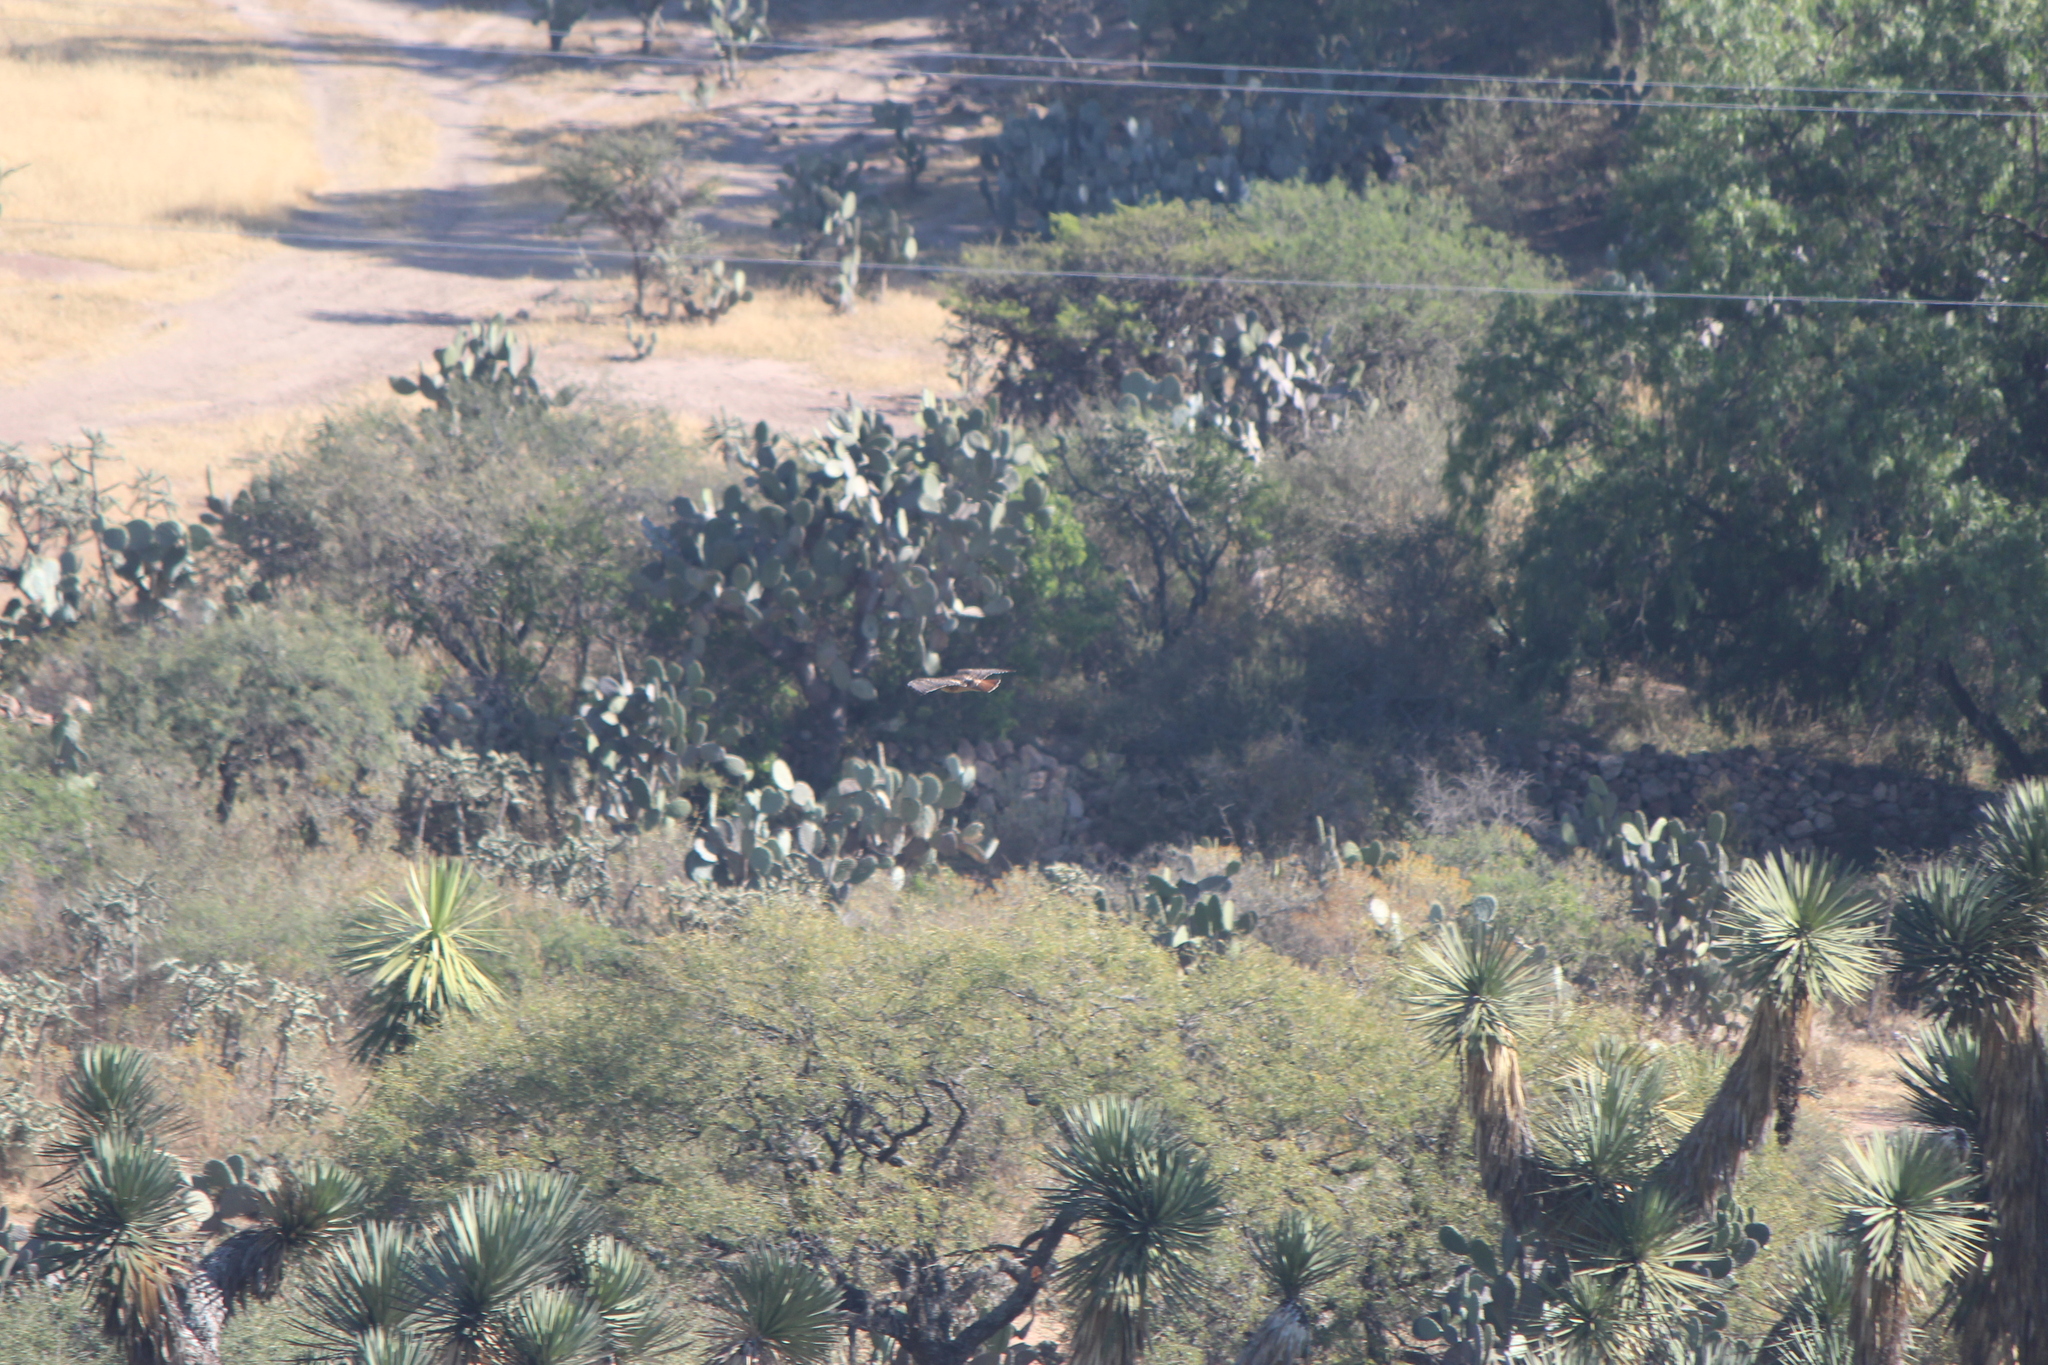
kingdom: Animalia
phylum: Chordata
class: Aves
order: Accipitriformes
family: Accipitridae
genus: Buteo
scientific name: Buteo jamaicensis
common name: Red-tailed hawk
